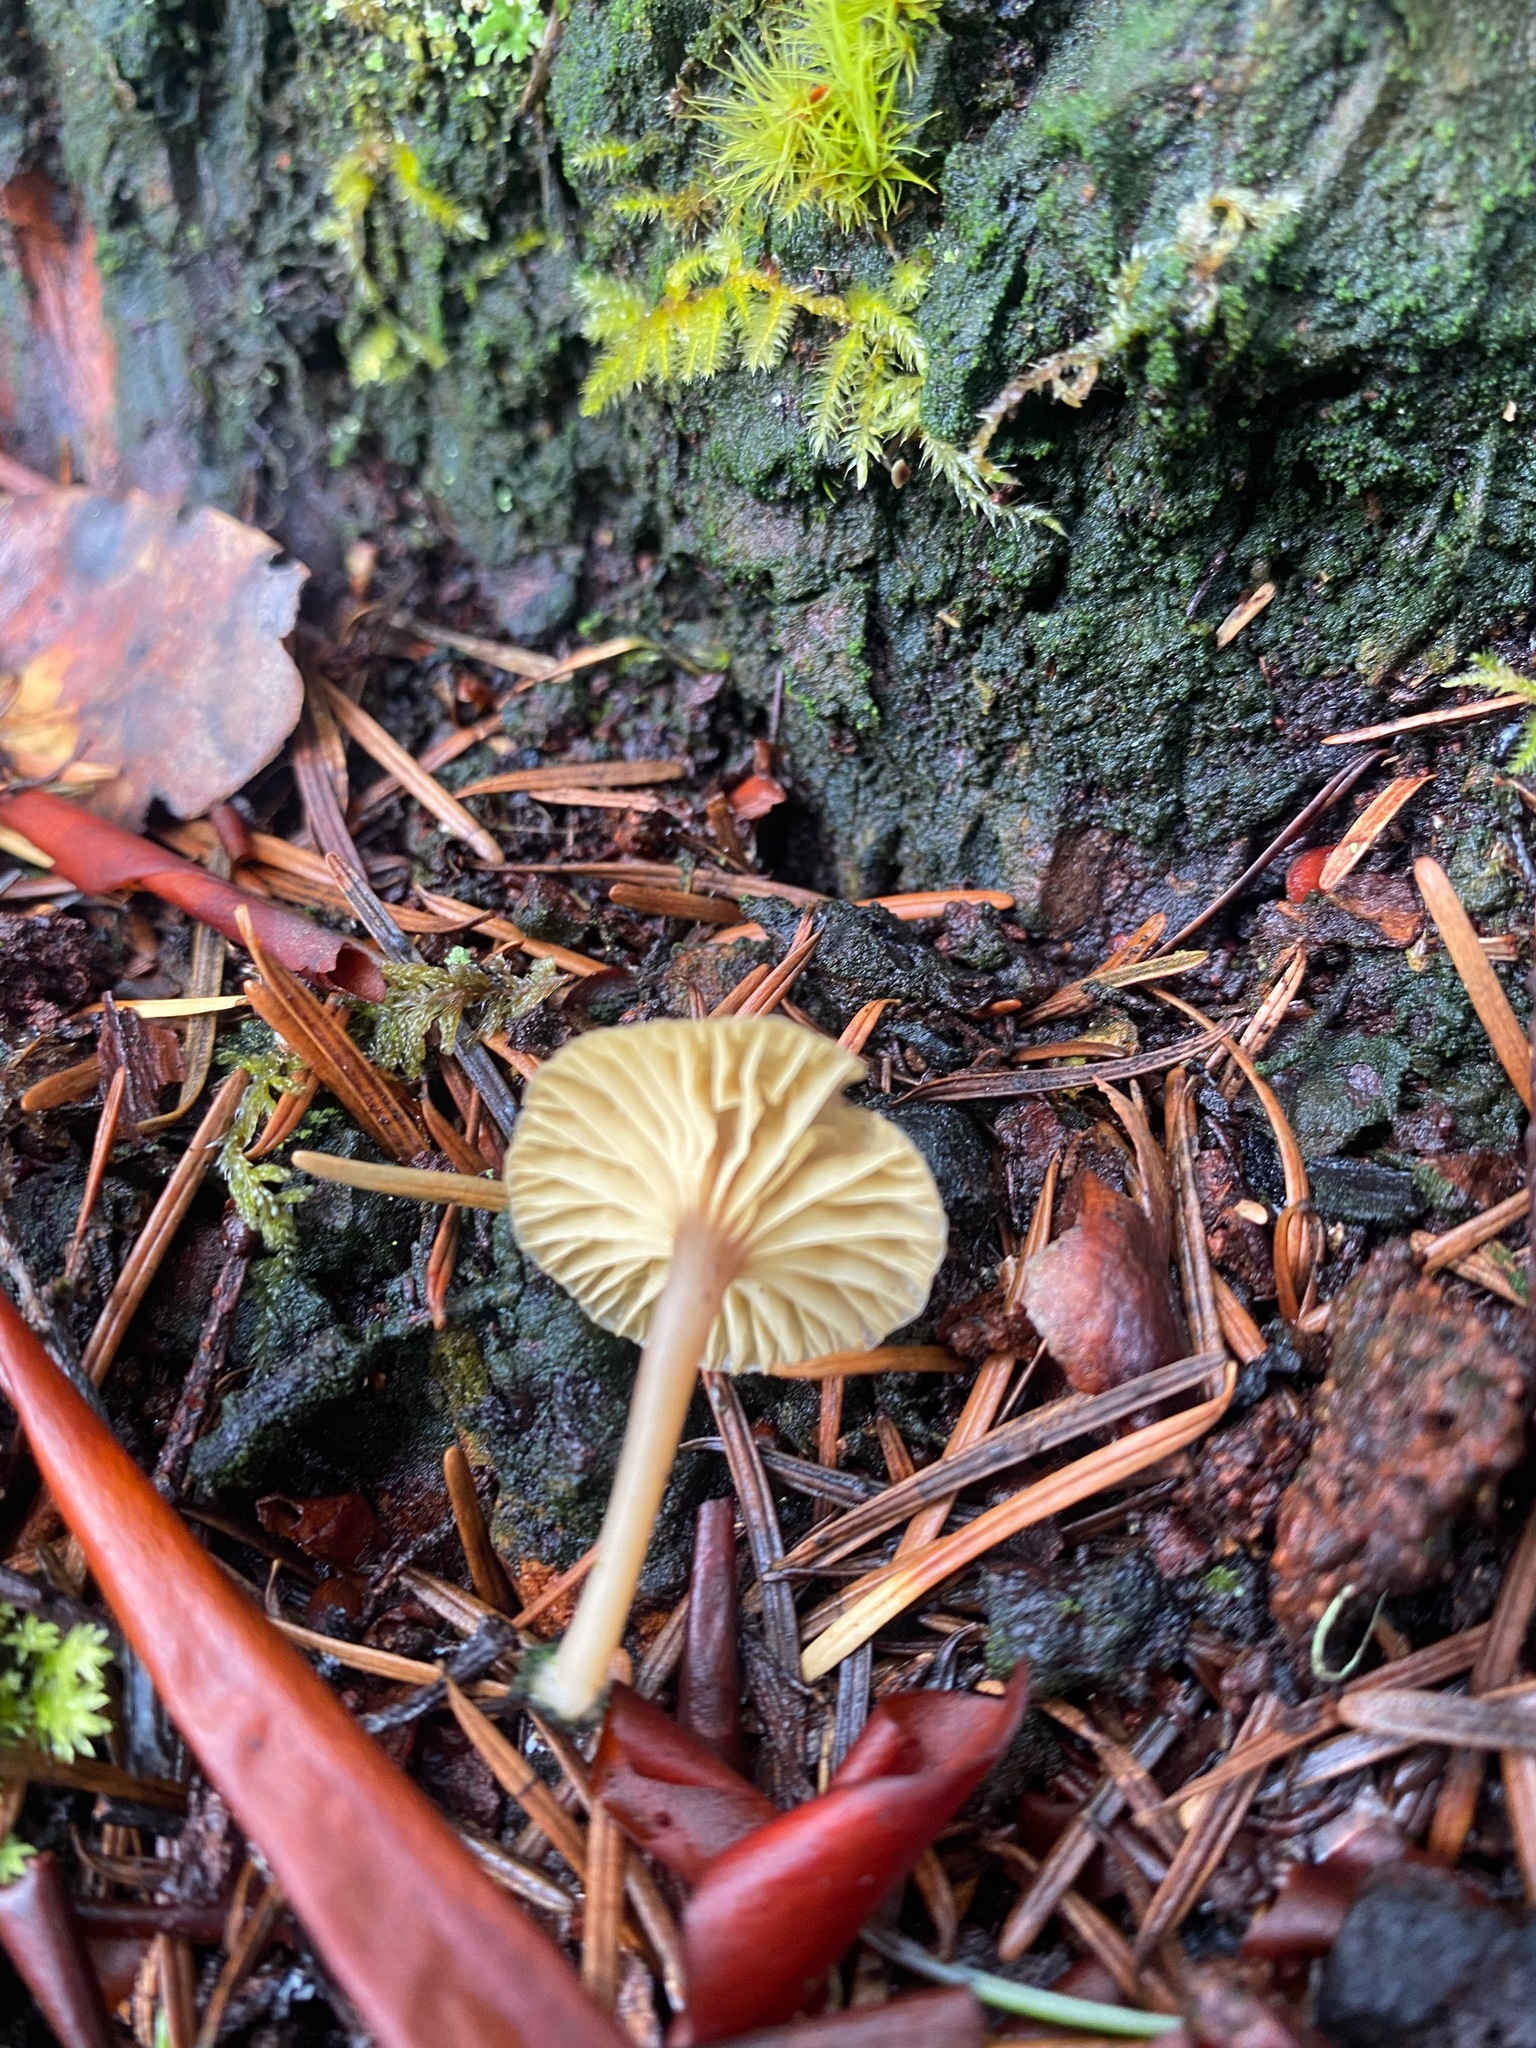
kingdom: Fungi
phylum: Basidiomycota
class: Agaricomycetes
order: Agaricales
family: Hygrophoraceae
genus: Lichenomphalia
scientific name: Lichenomphalia
